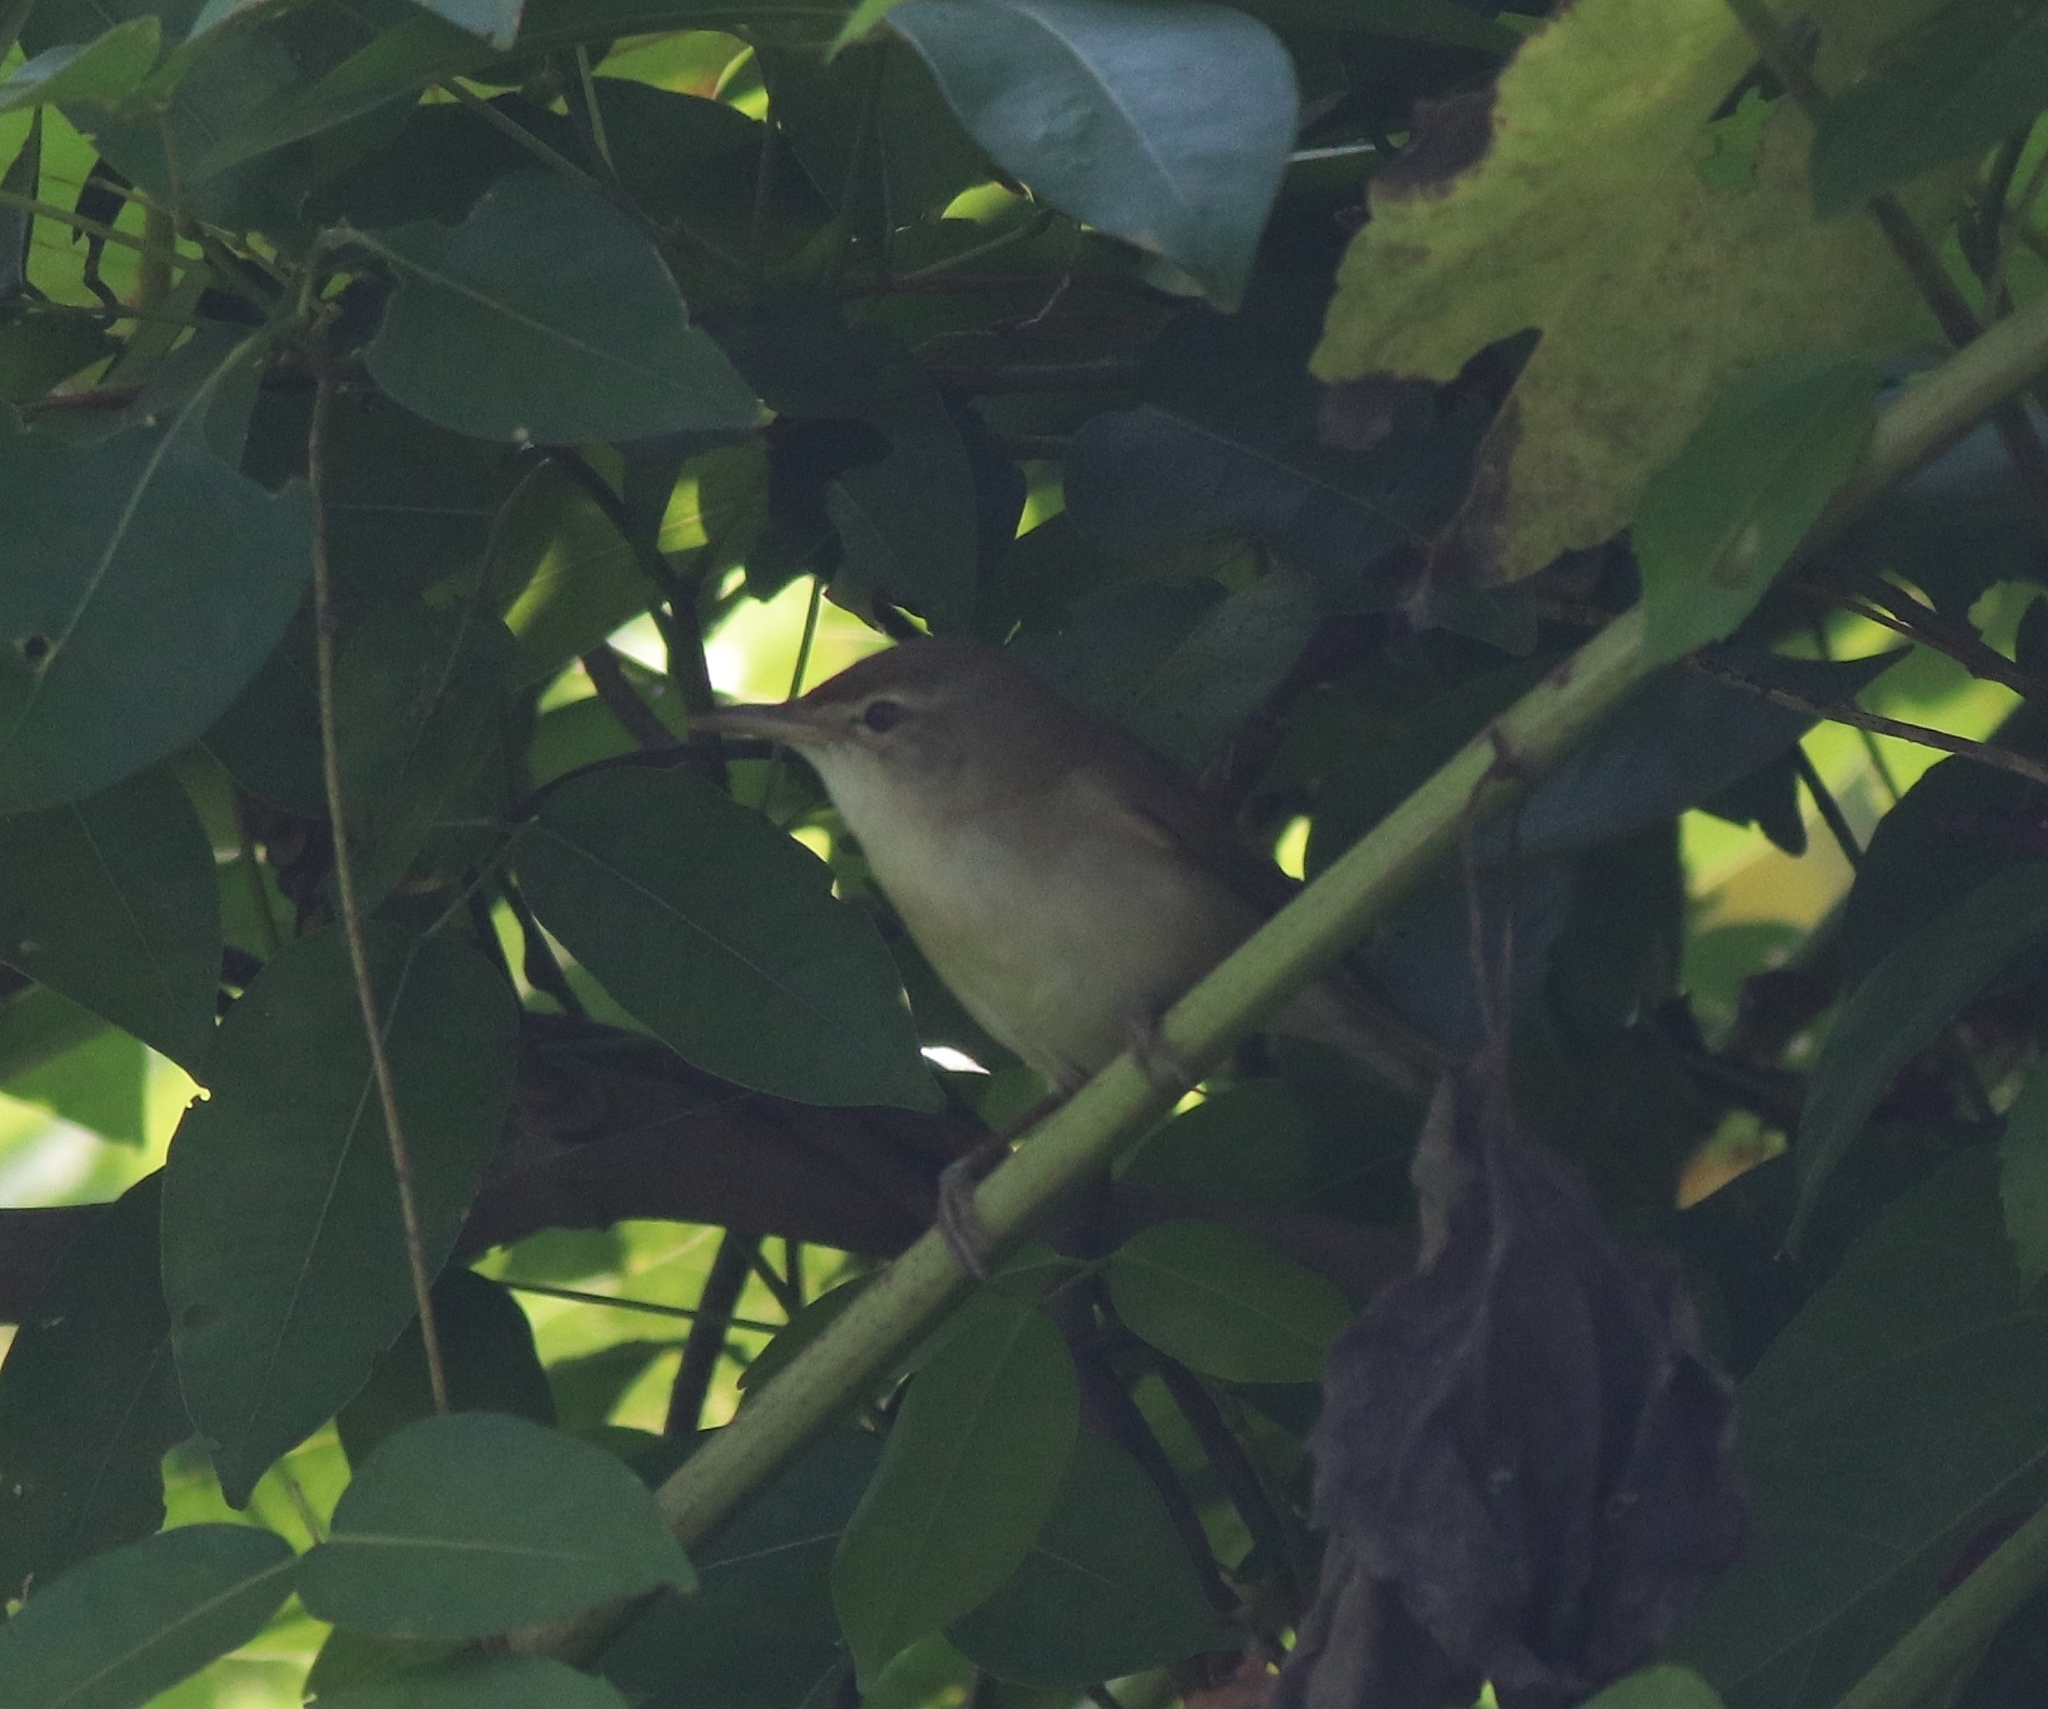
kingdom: Animalia
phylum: Chordata
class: Aves
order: Passeriformes
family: Acrocephalidae
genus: Acrocephalus
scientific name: Acrocephalus dumetorum
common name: Blyth's reed warbler
